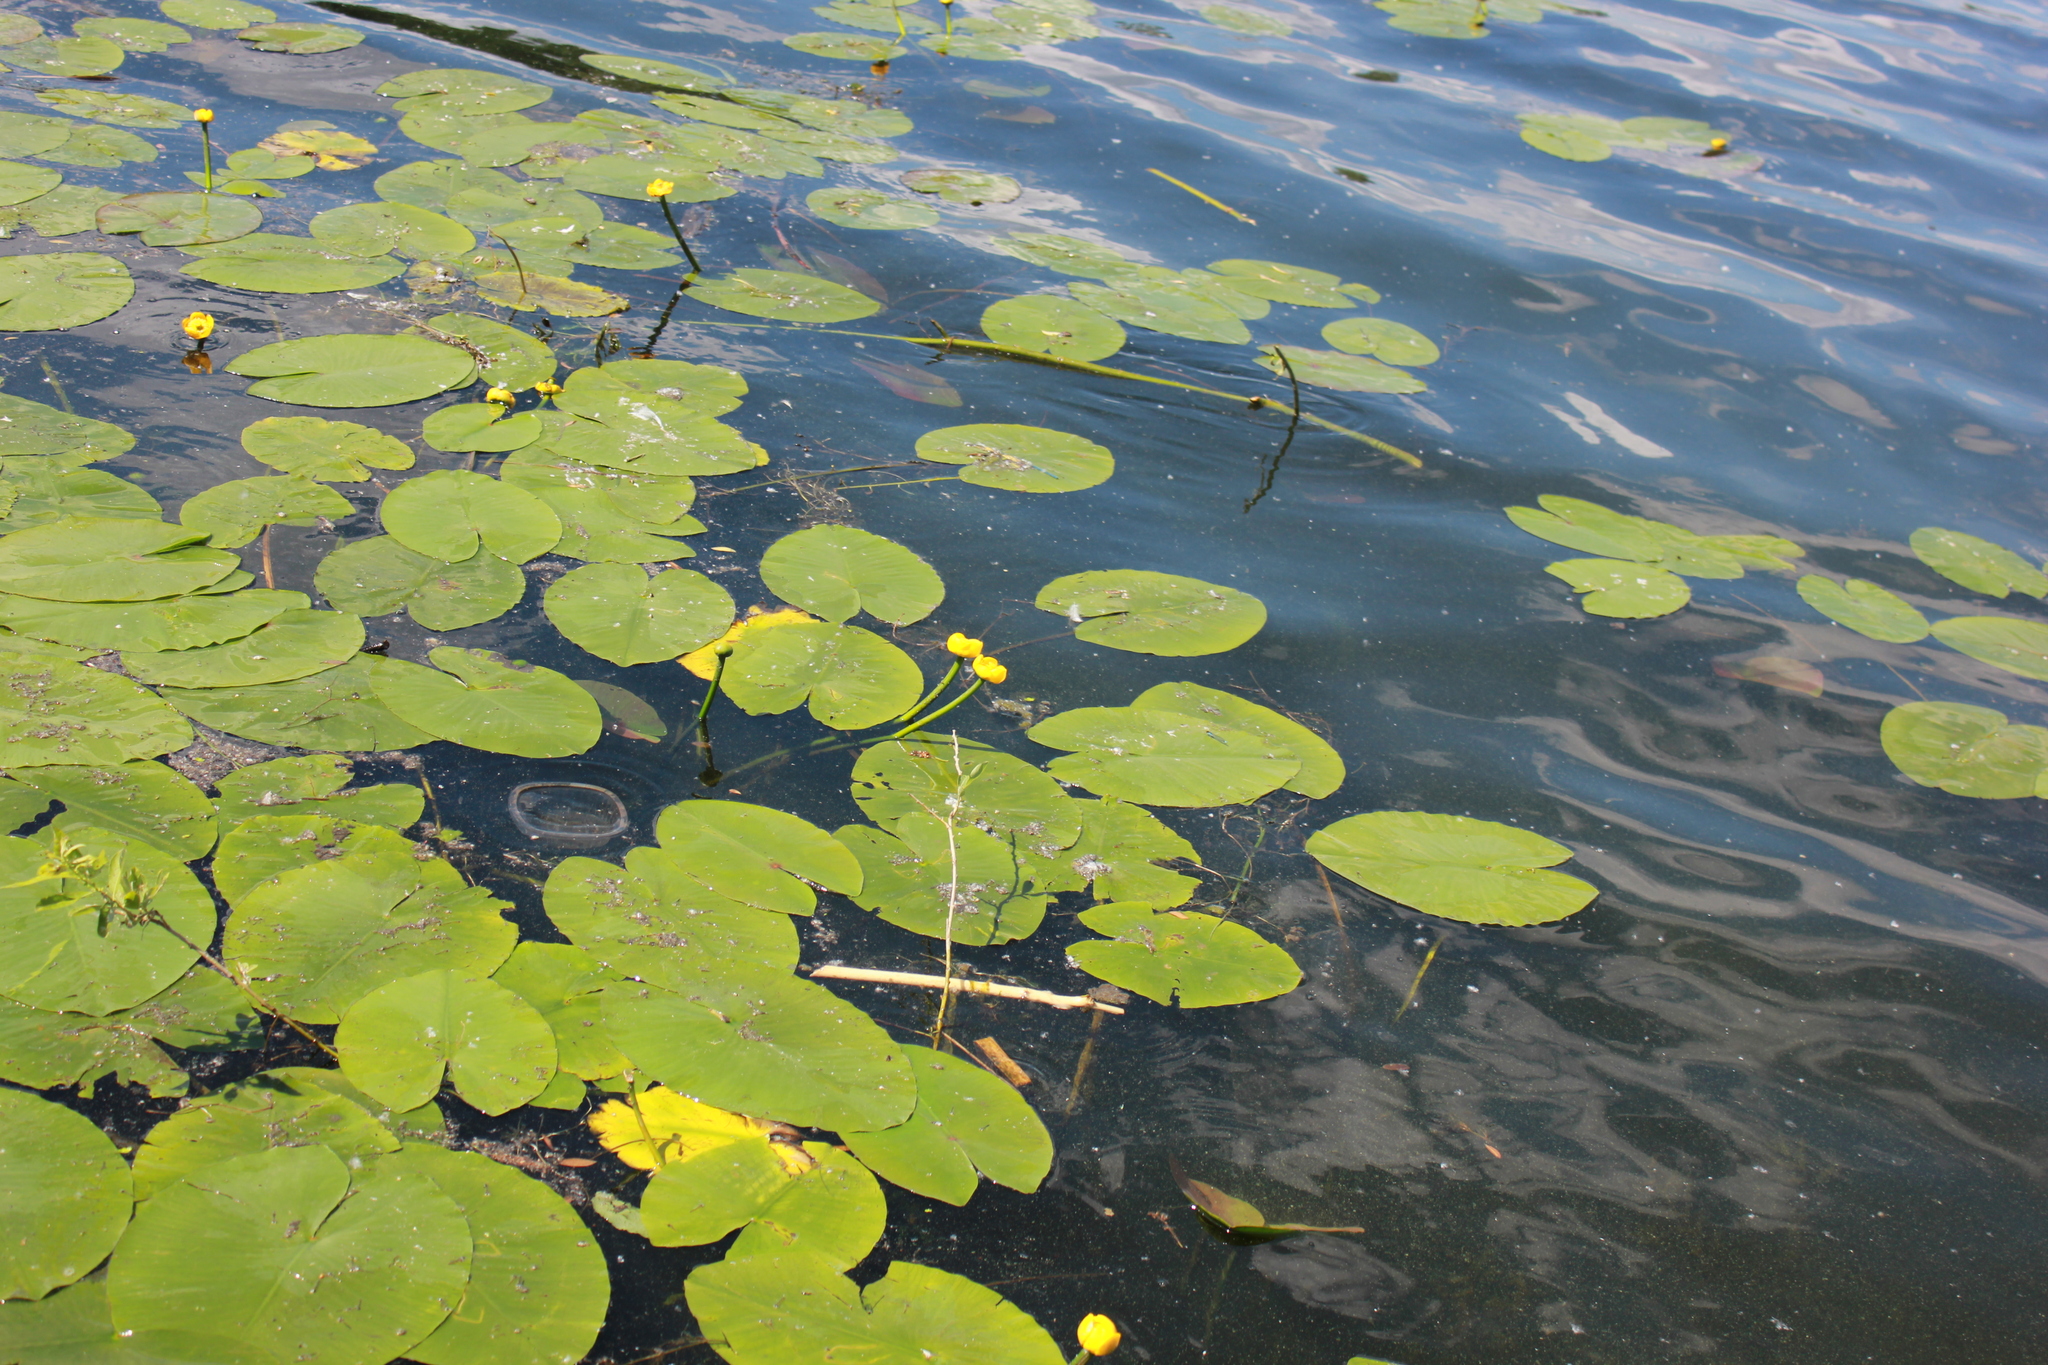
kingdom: Plantae
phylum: Tracheophyta
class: Magnoliopsida
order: Nymphaeales
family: Nymphaeaceae
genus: Nuphar
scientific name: Nuphar lutea
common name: Yellow water-lily
